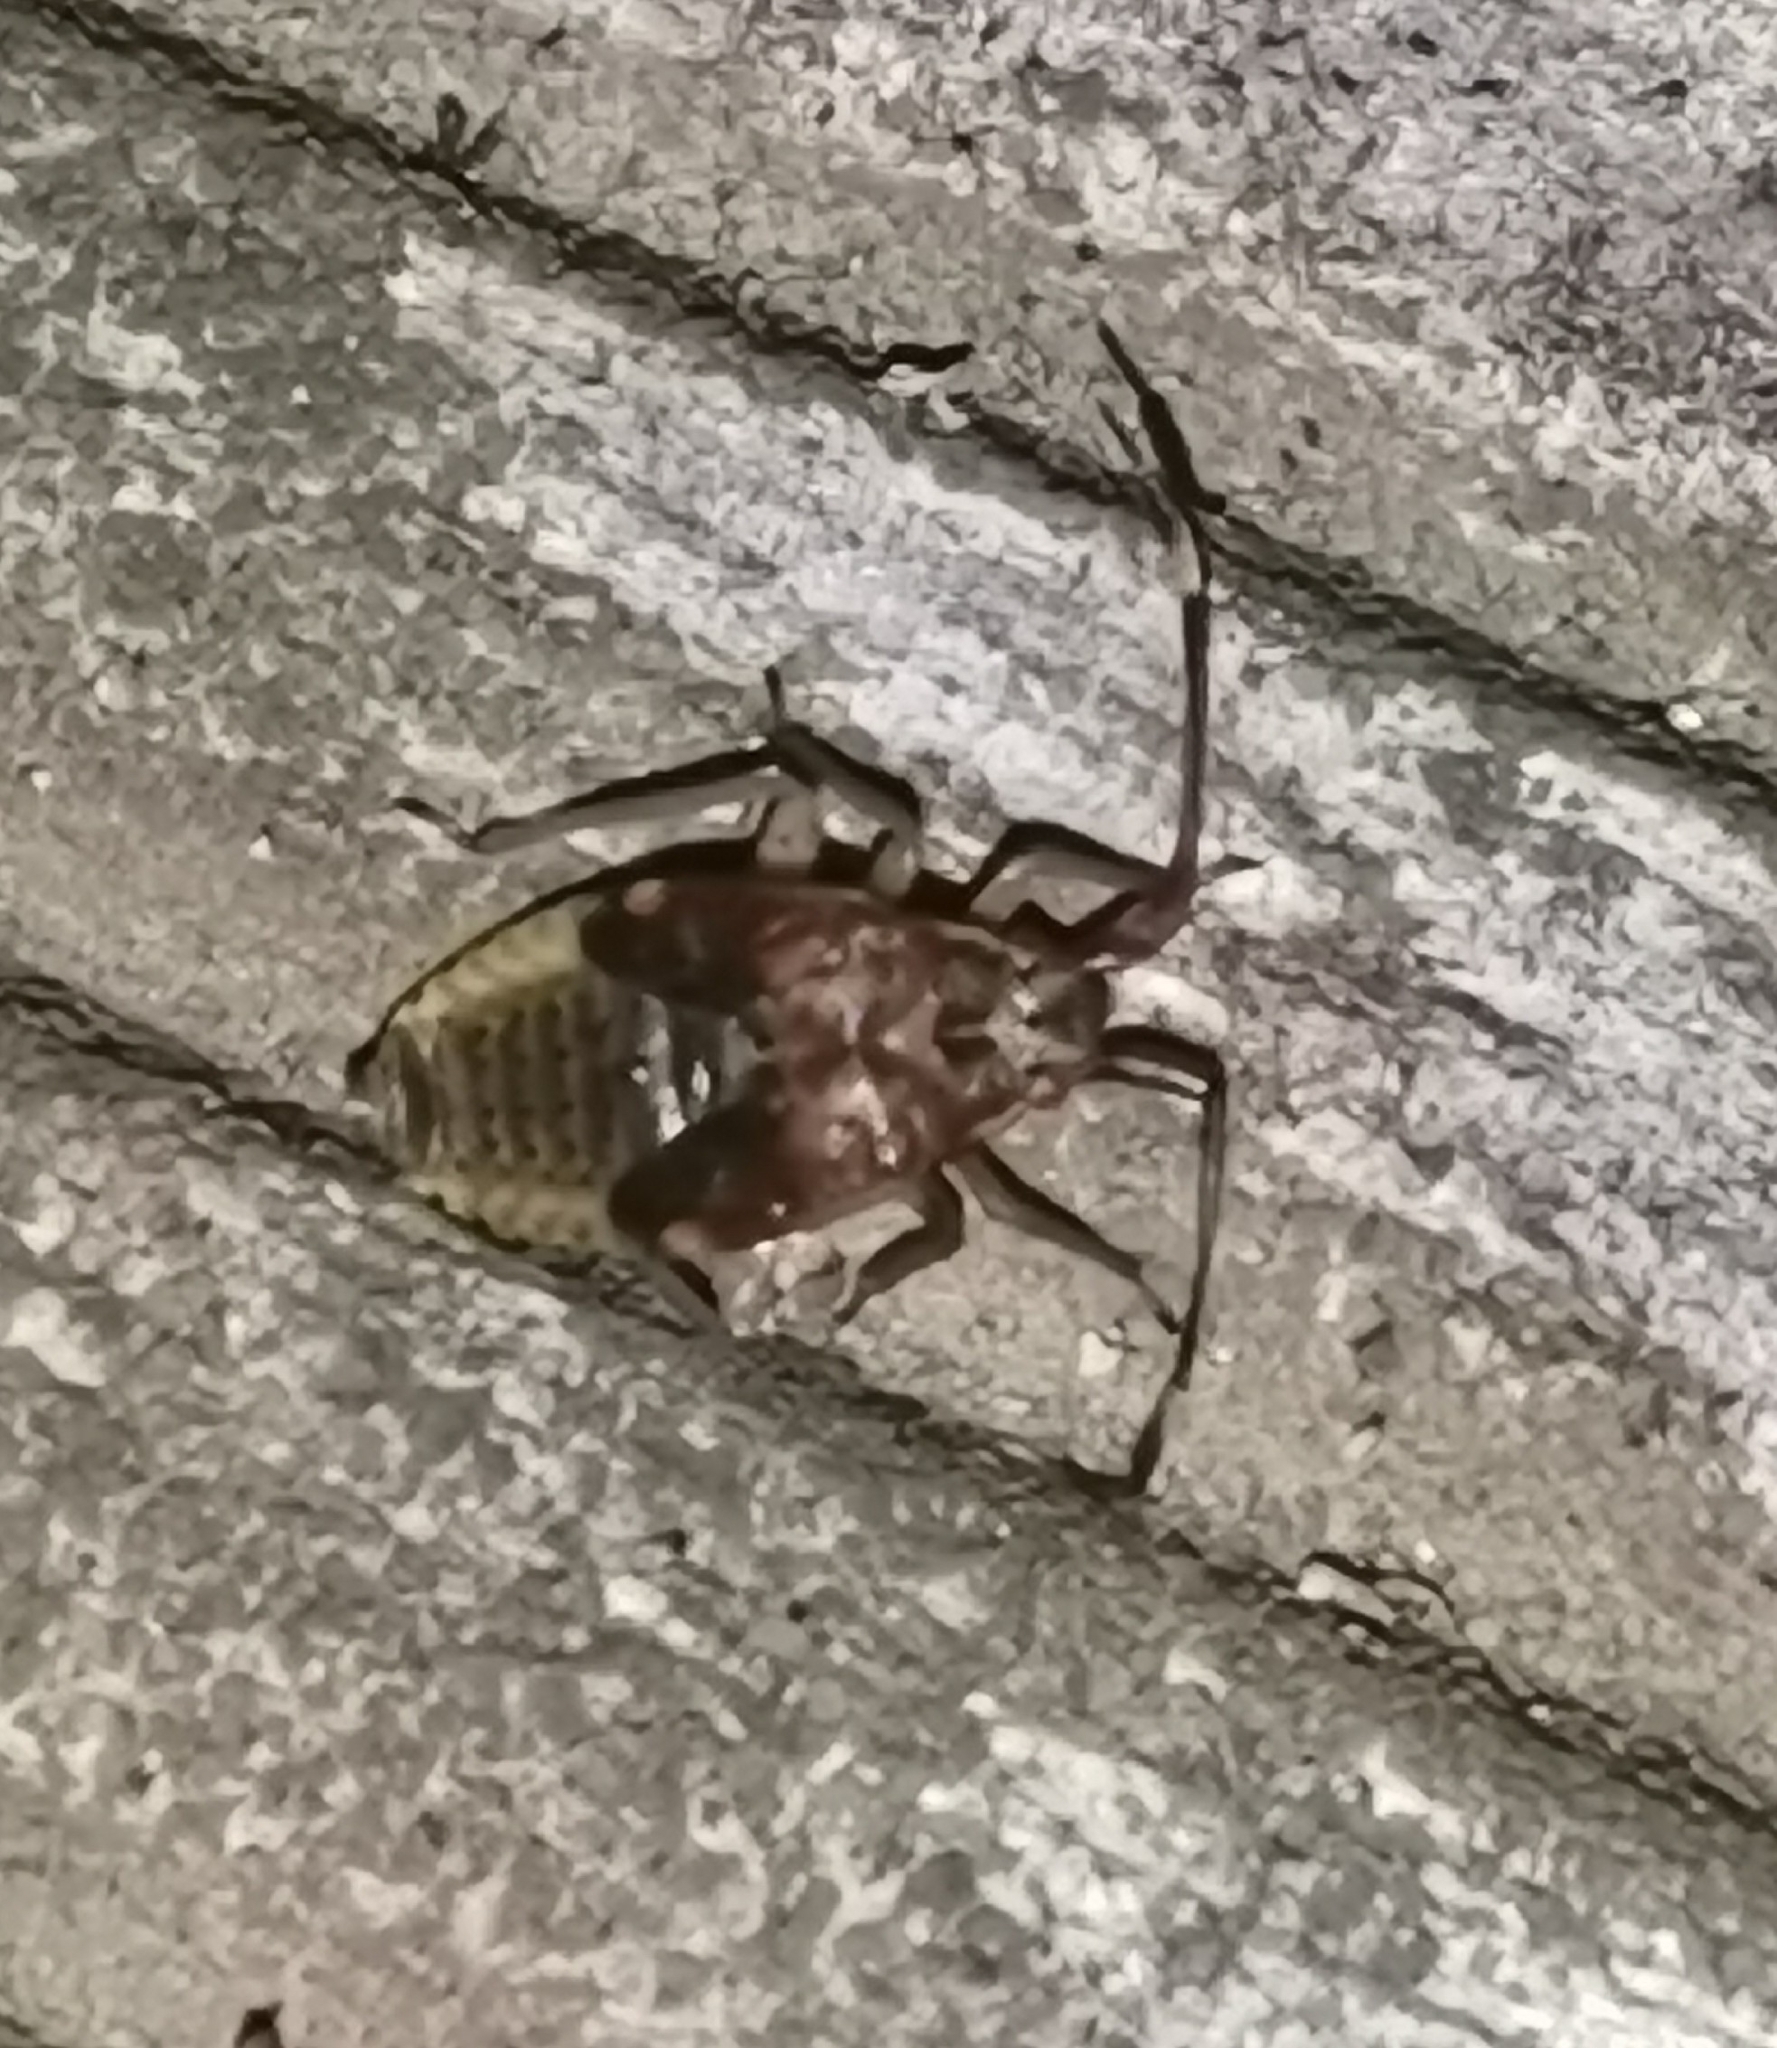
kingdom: Animalia
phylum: Arthropoda
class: Insecta
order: Hemiptera
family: Miridae
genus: Pantilius
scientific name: Pantilius tunicatus
